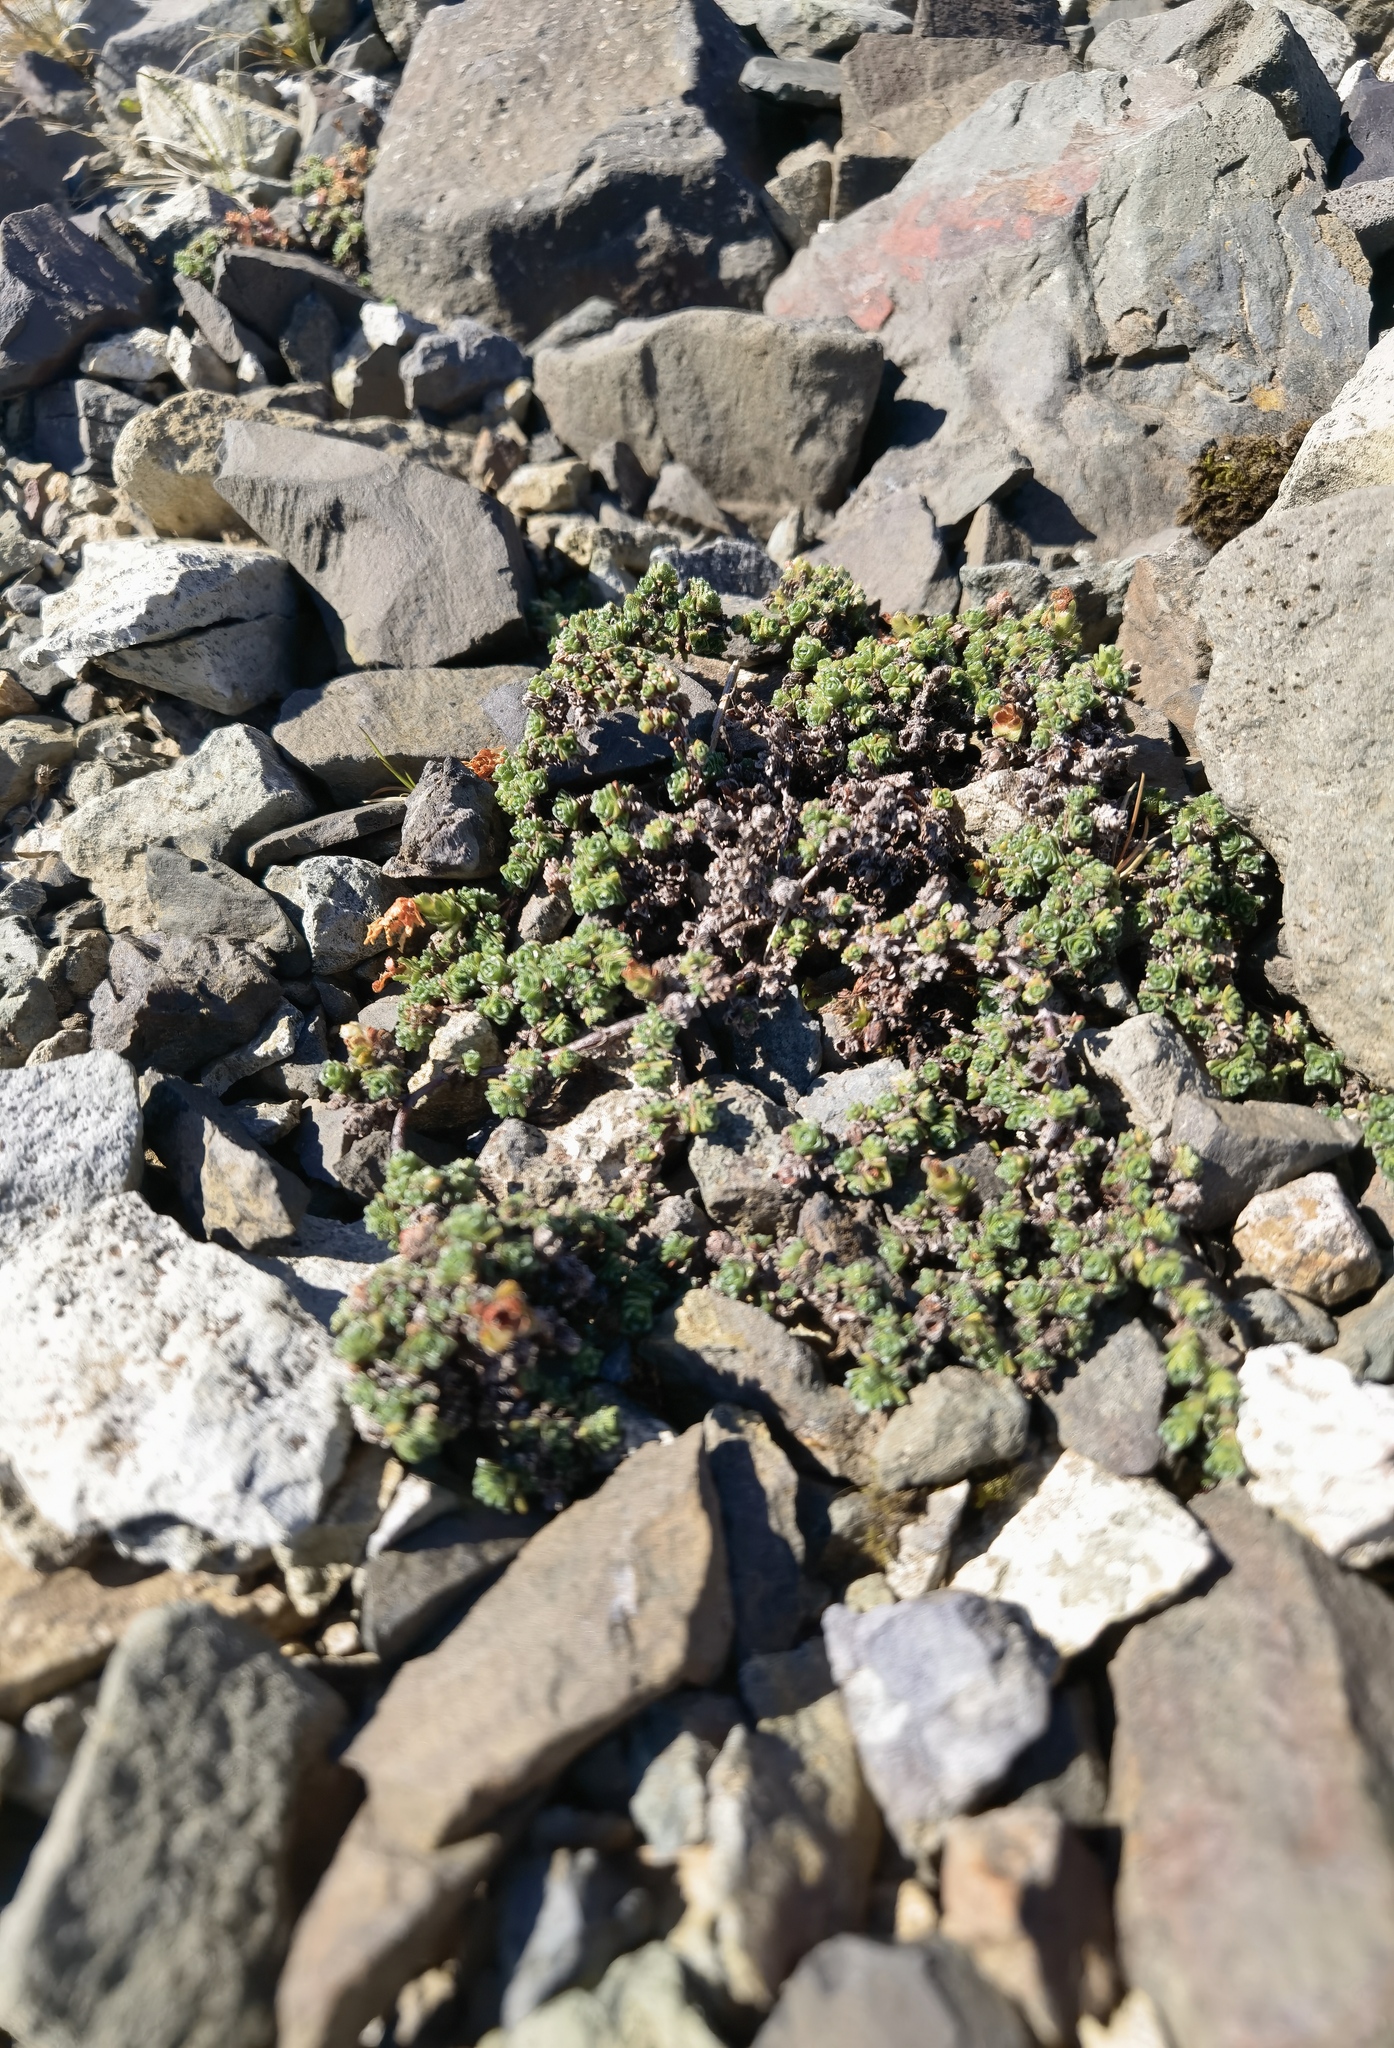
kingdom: Plantae
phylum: Tracheophyta
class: Magnoliopsida
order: Saxifragales
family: Saxifragaceae
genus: Saxifraga
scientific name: Saxifraga oppositifolia
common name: Purple saxifrage
